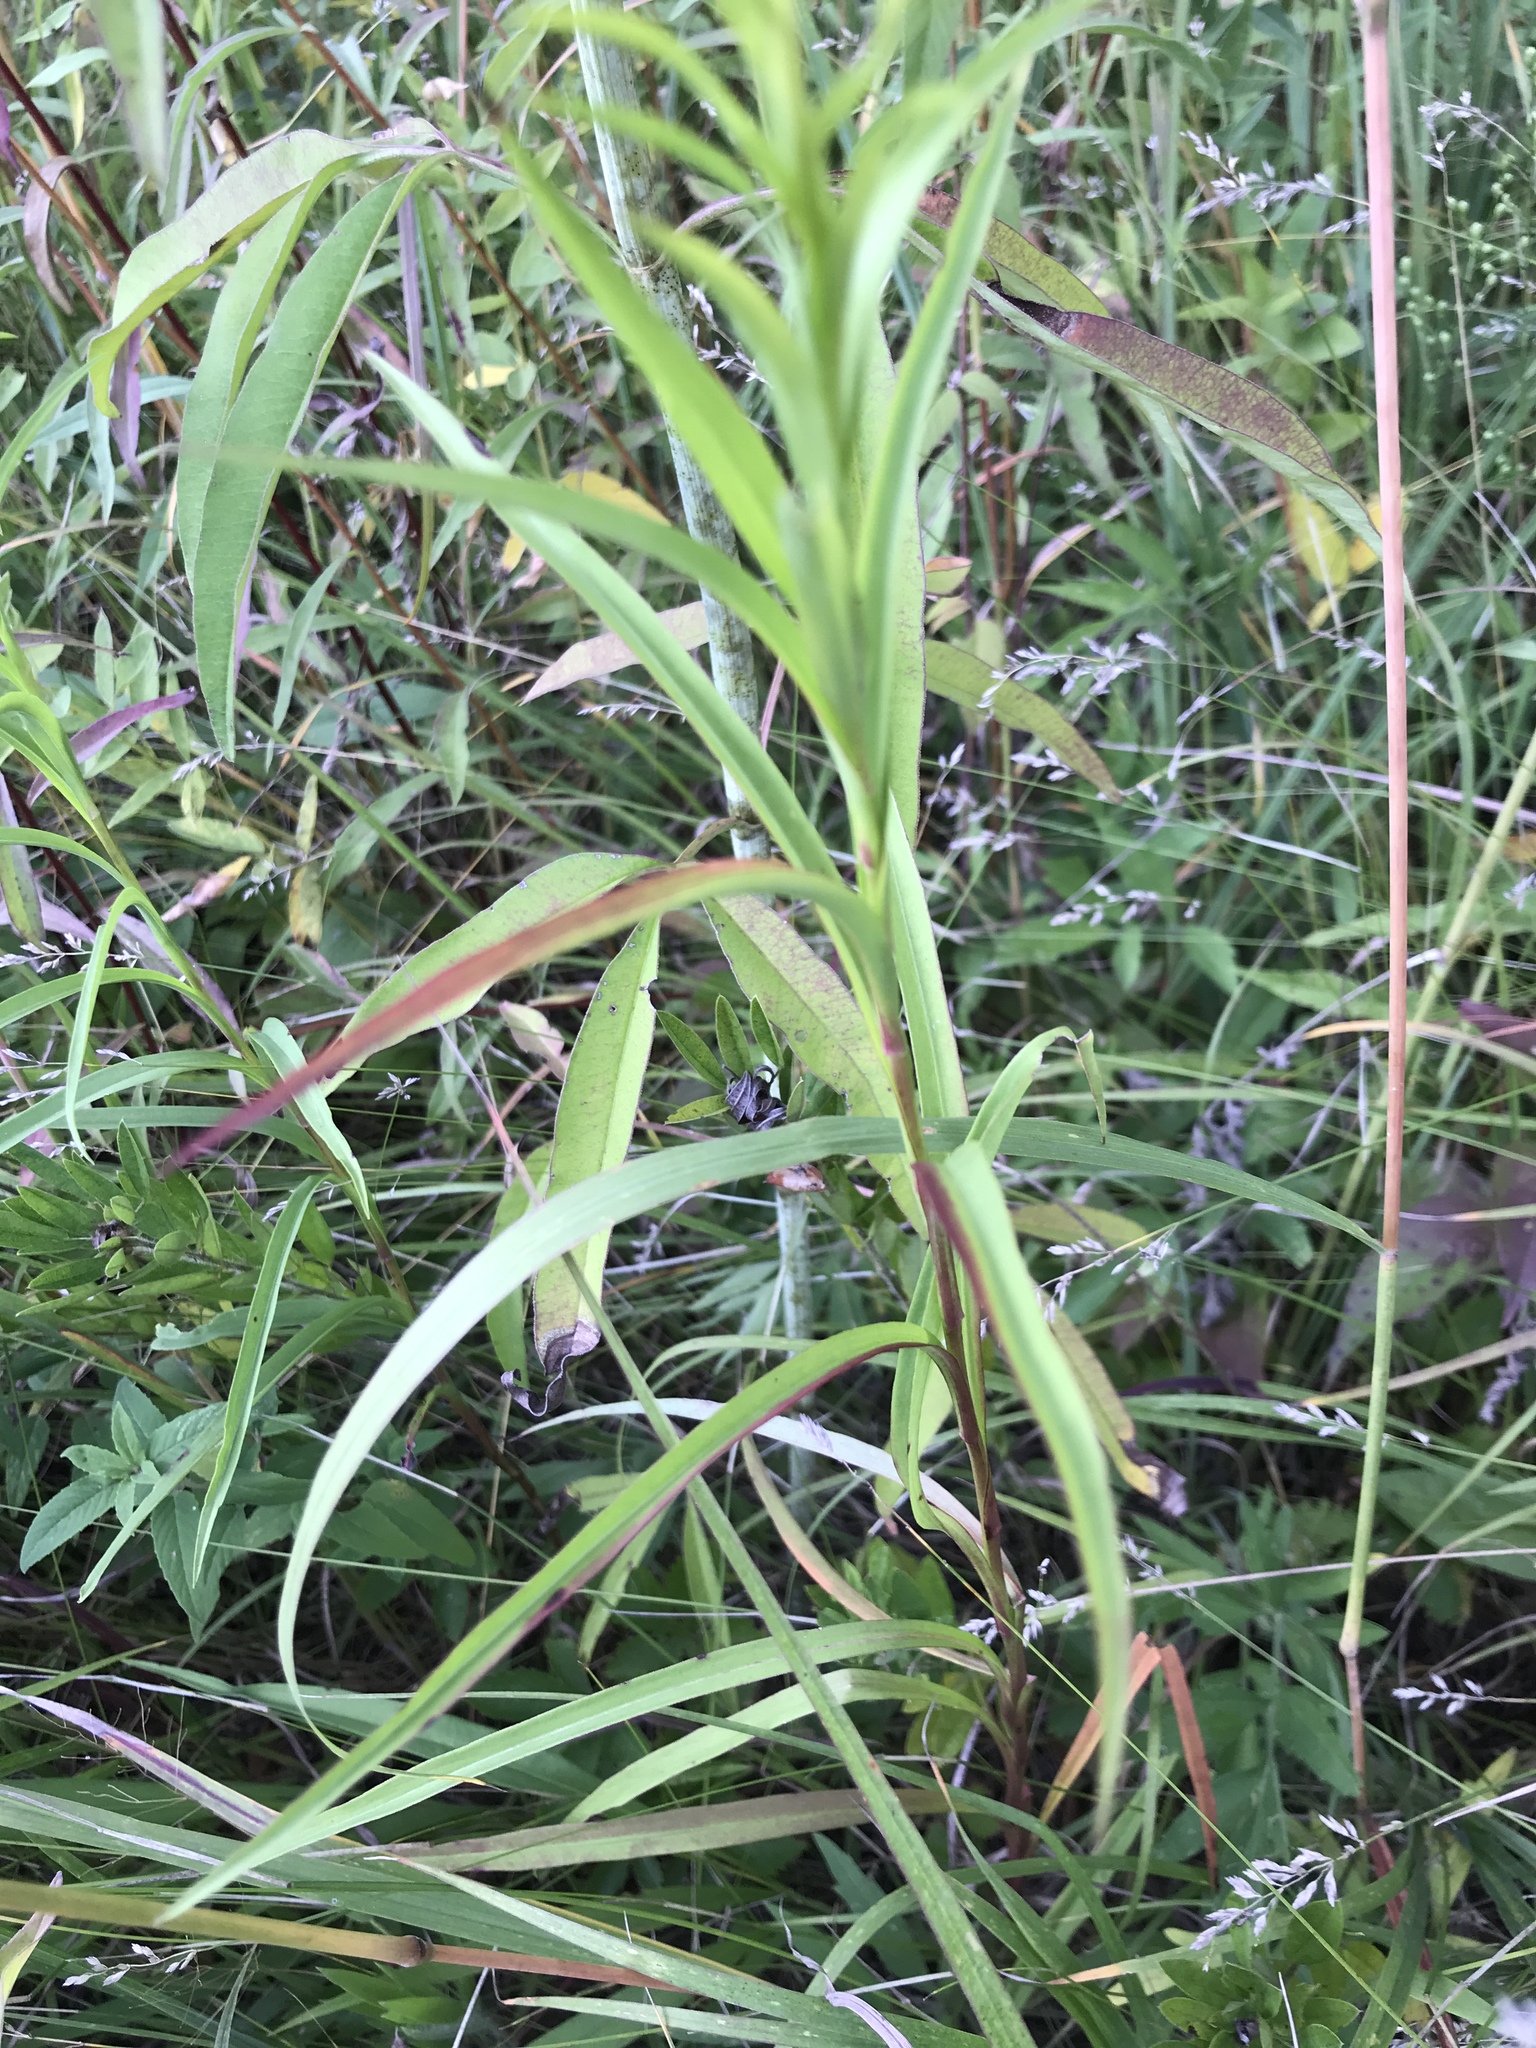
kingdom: Plantae
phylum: Tracheophyta
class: Magnoliopsida
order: Asterales
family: Asteraceae
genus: Solidago
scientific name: Solidago riddellii
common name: Riddell's goldenrod
